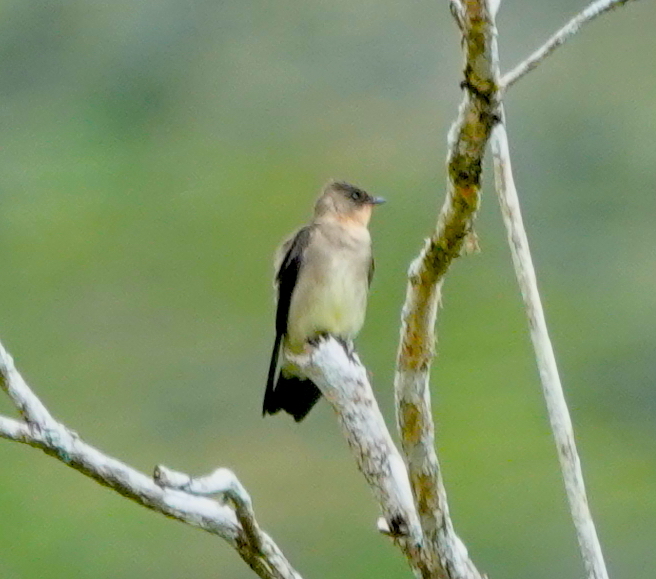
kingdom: Animalia
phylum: Chordata
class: Aves
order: Passeriformes
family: Hirundinidae
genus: Stelgidopteryx
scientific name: Stelgidopteryx ruficollis
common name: Southern rough-winged swallow
